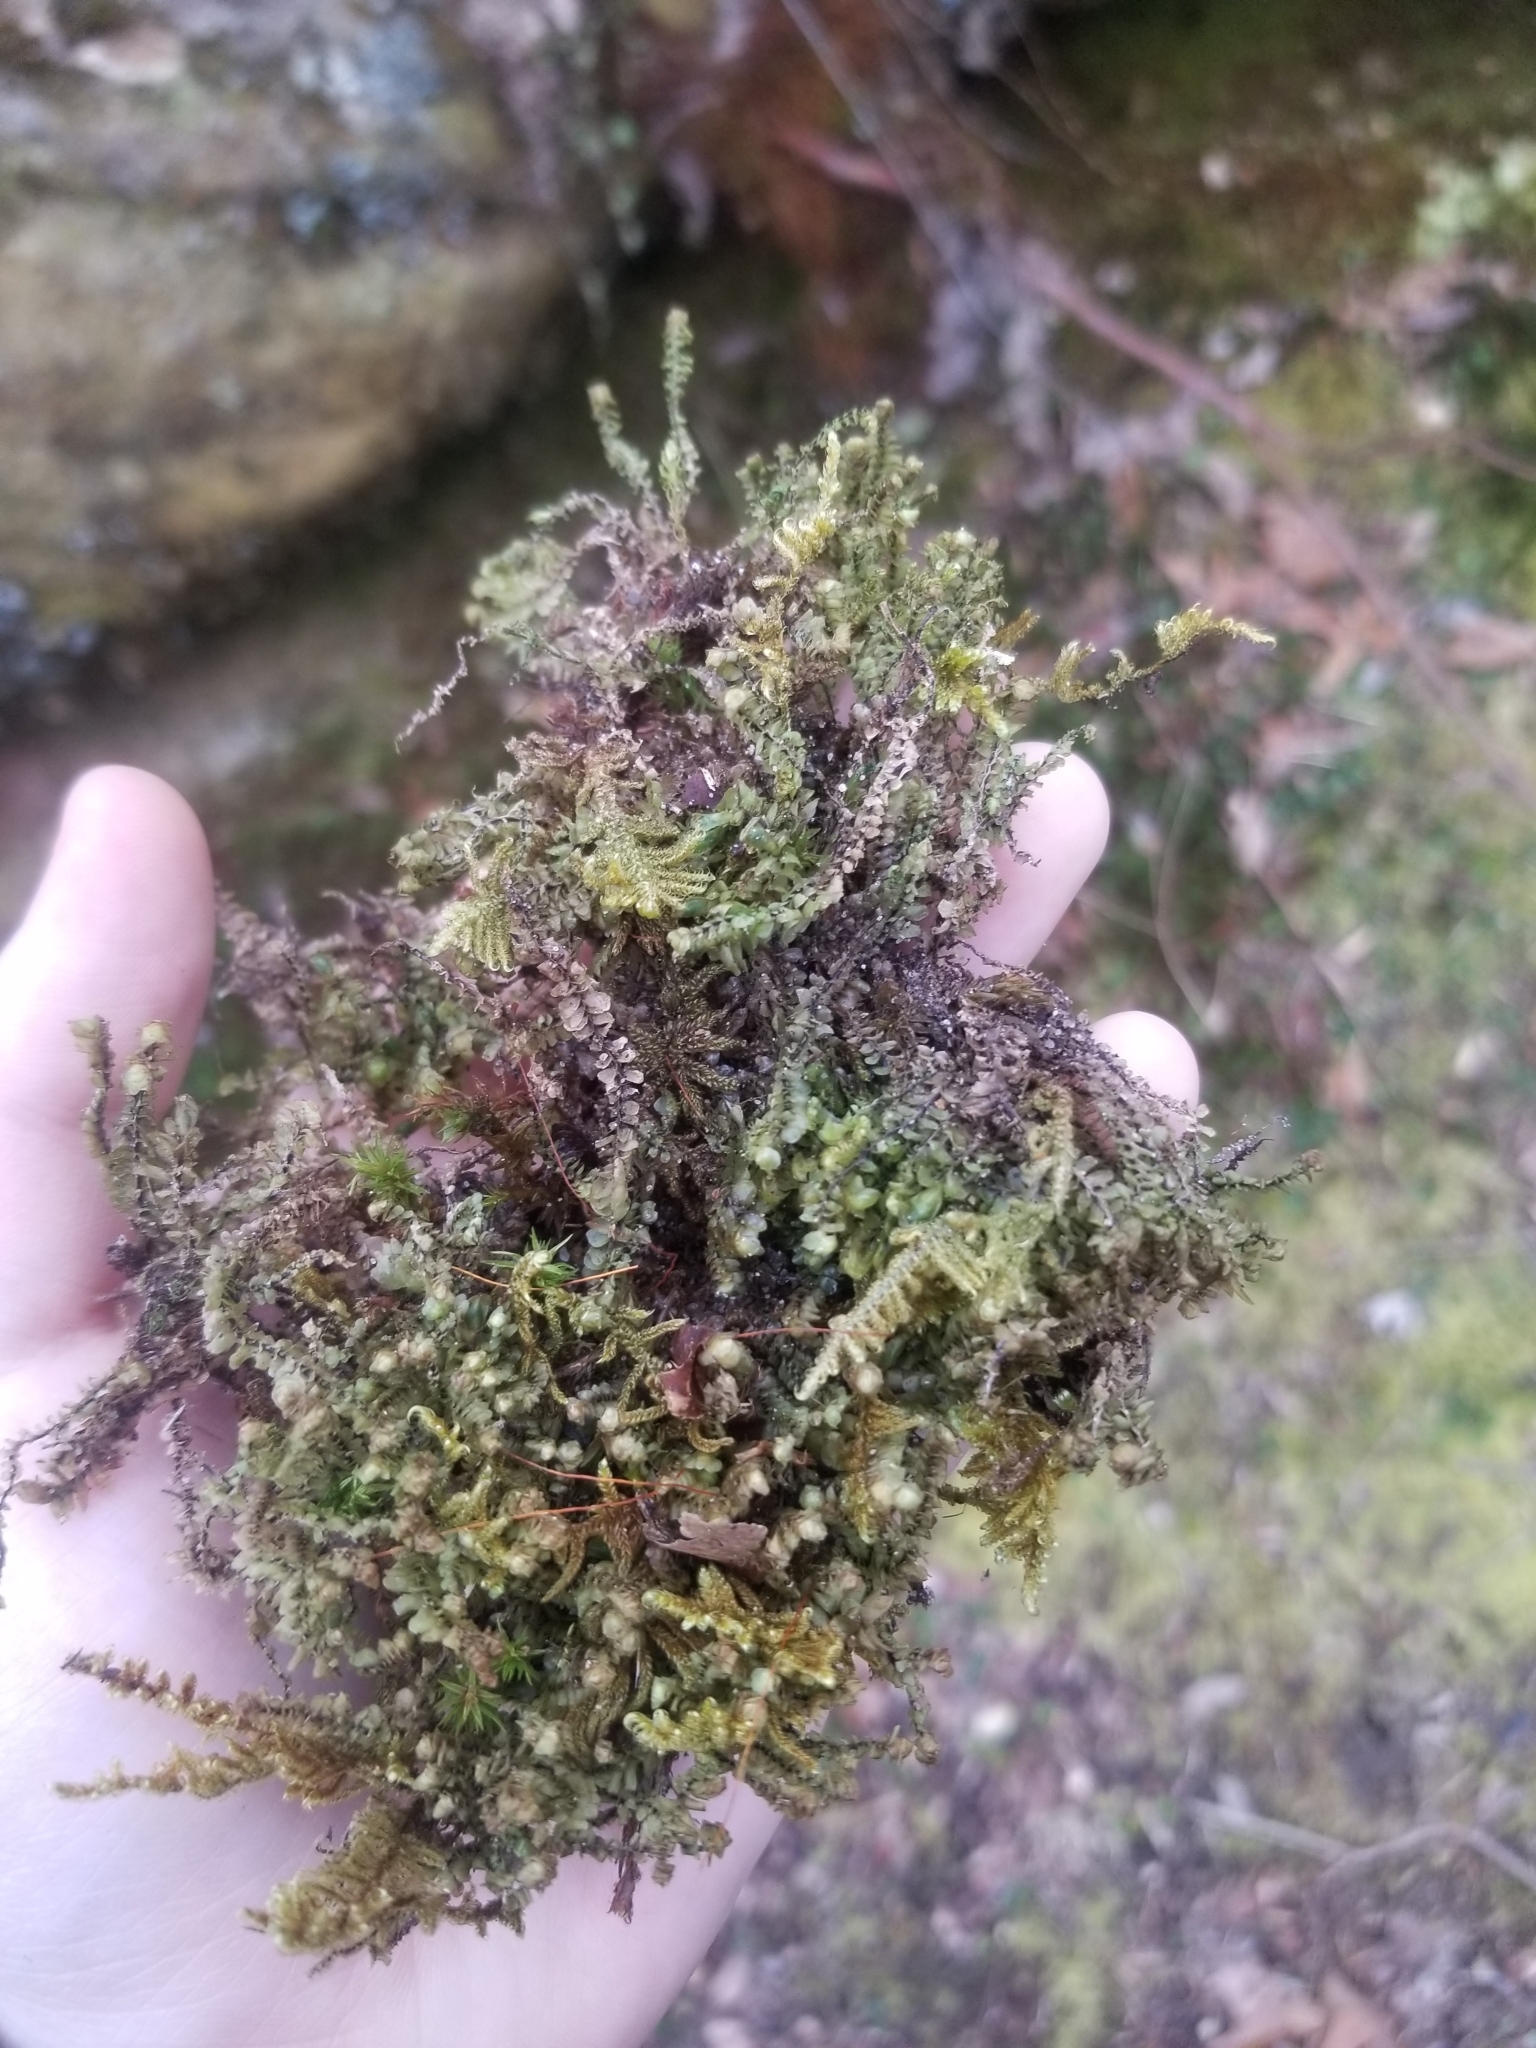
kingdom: Plantae
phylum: Marchantiophyta
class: Jungermanniopsida
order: Jungermanniales
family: Scapaniaceae
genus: Scapania
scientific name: Scapania nemorea
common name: Grove earwort
